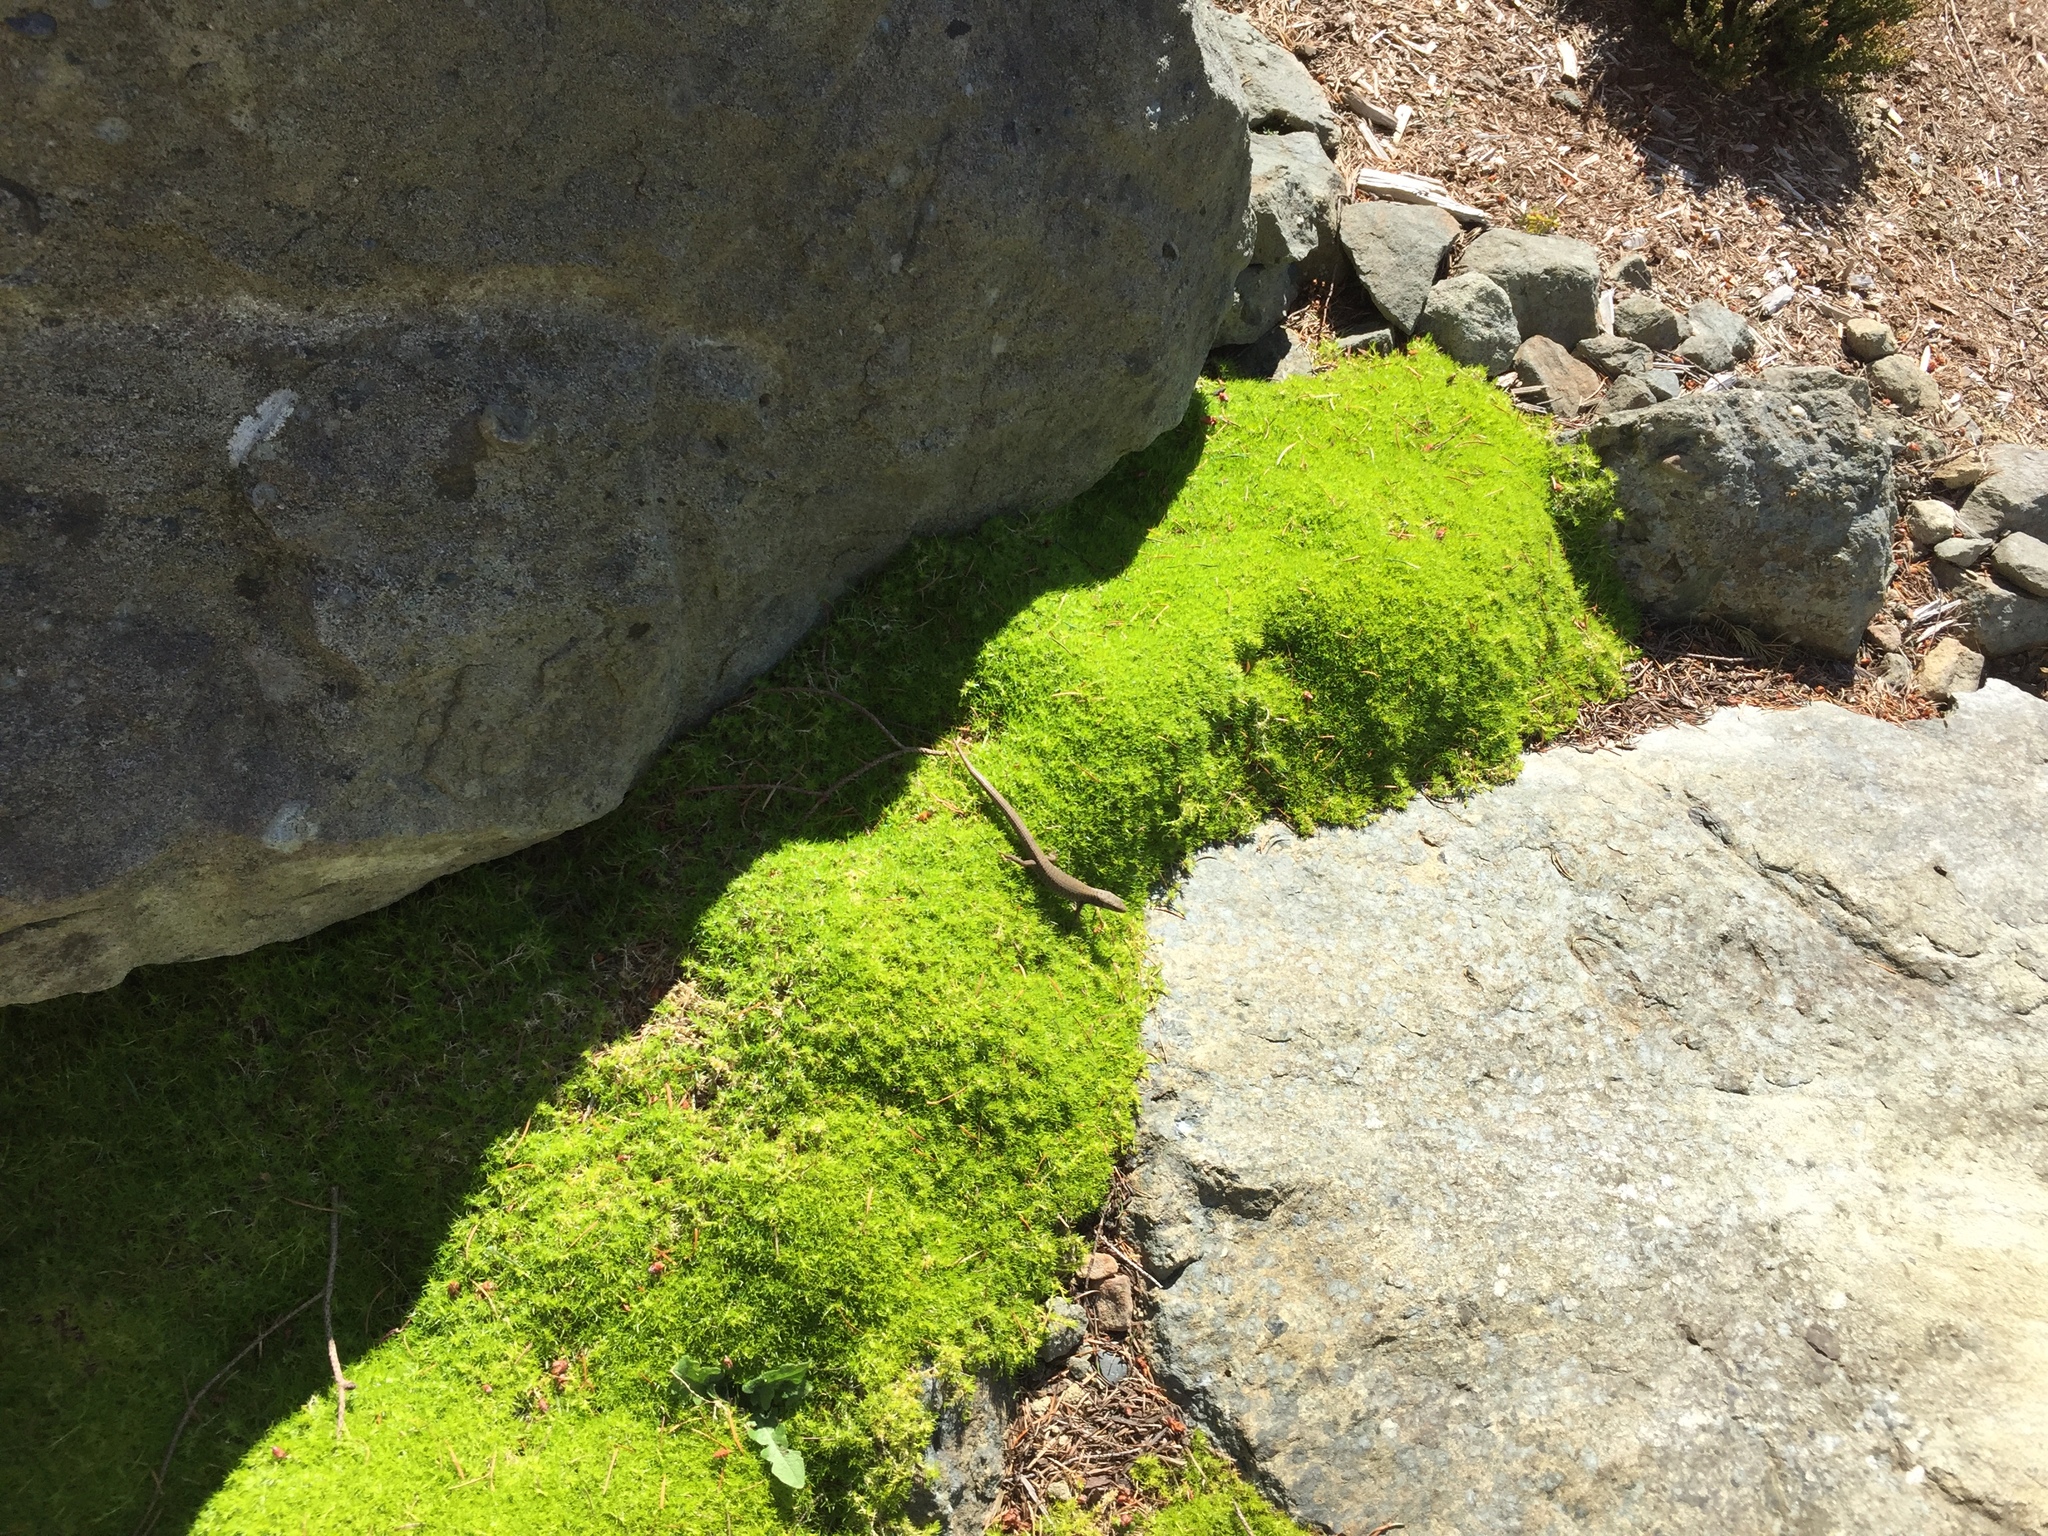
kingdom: Animalia
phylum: Chordata
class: Squamata
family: Anguidae
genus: Elgaria
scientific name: Elgaria coerulea
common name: Northern alligator lizard
